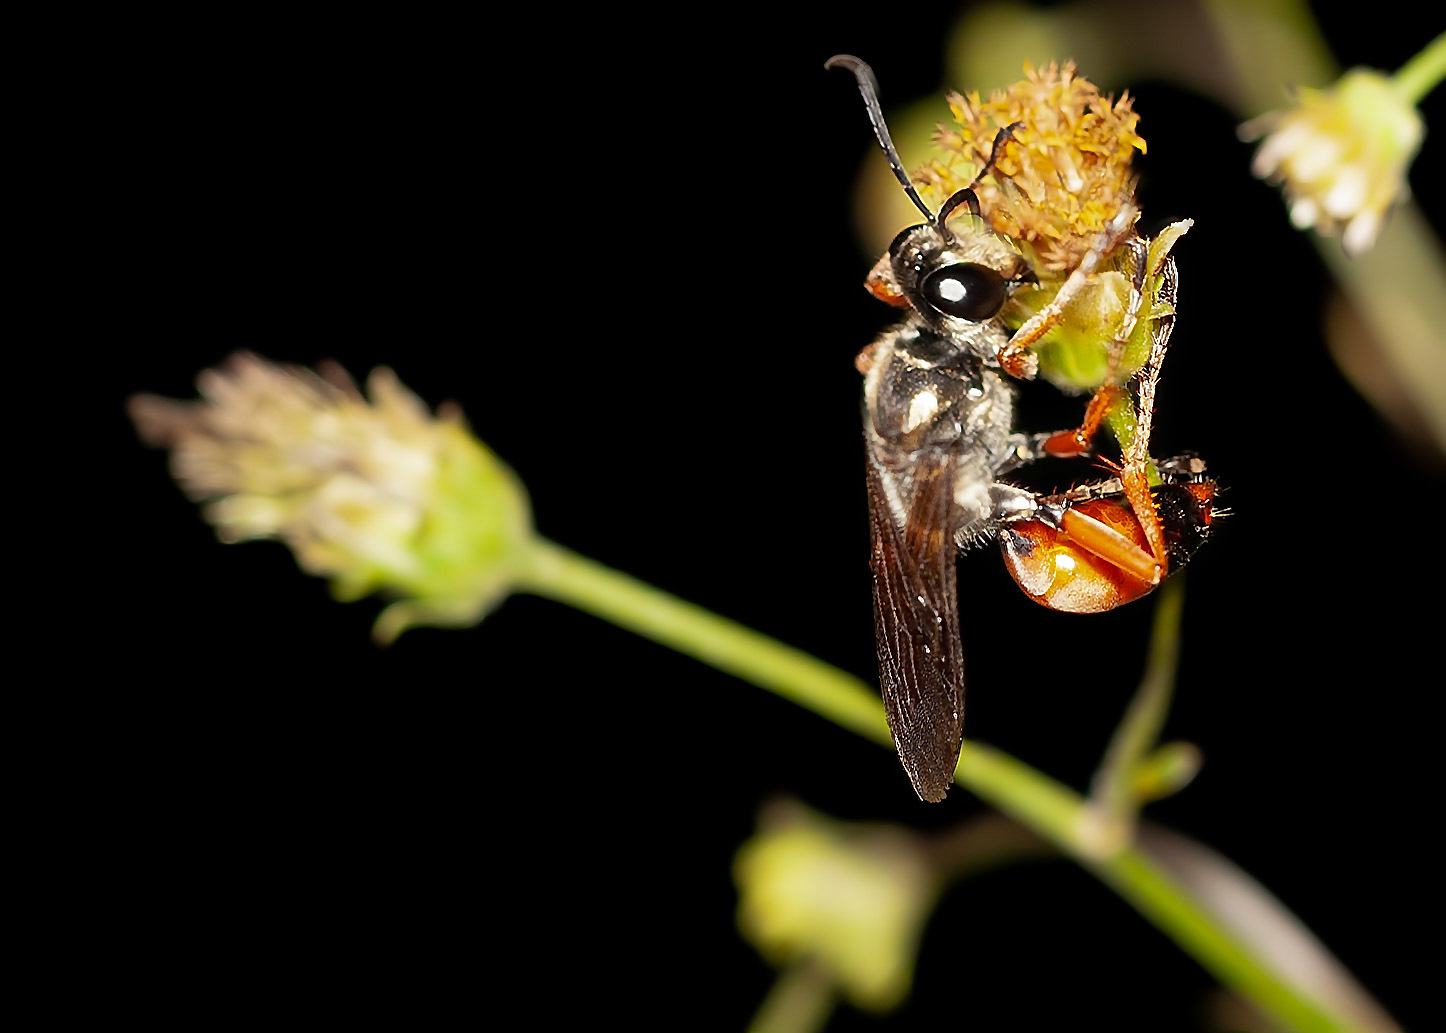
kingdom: Animalia
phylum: Arthropoda
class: Insecta
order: Hymenoptera
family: Sphecidae
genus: Sphex
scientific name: Sphex dorsalis
